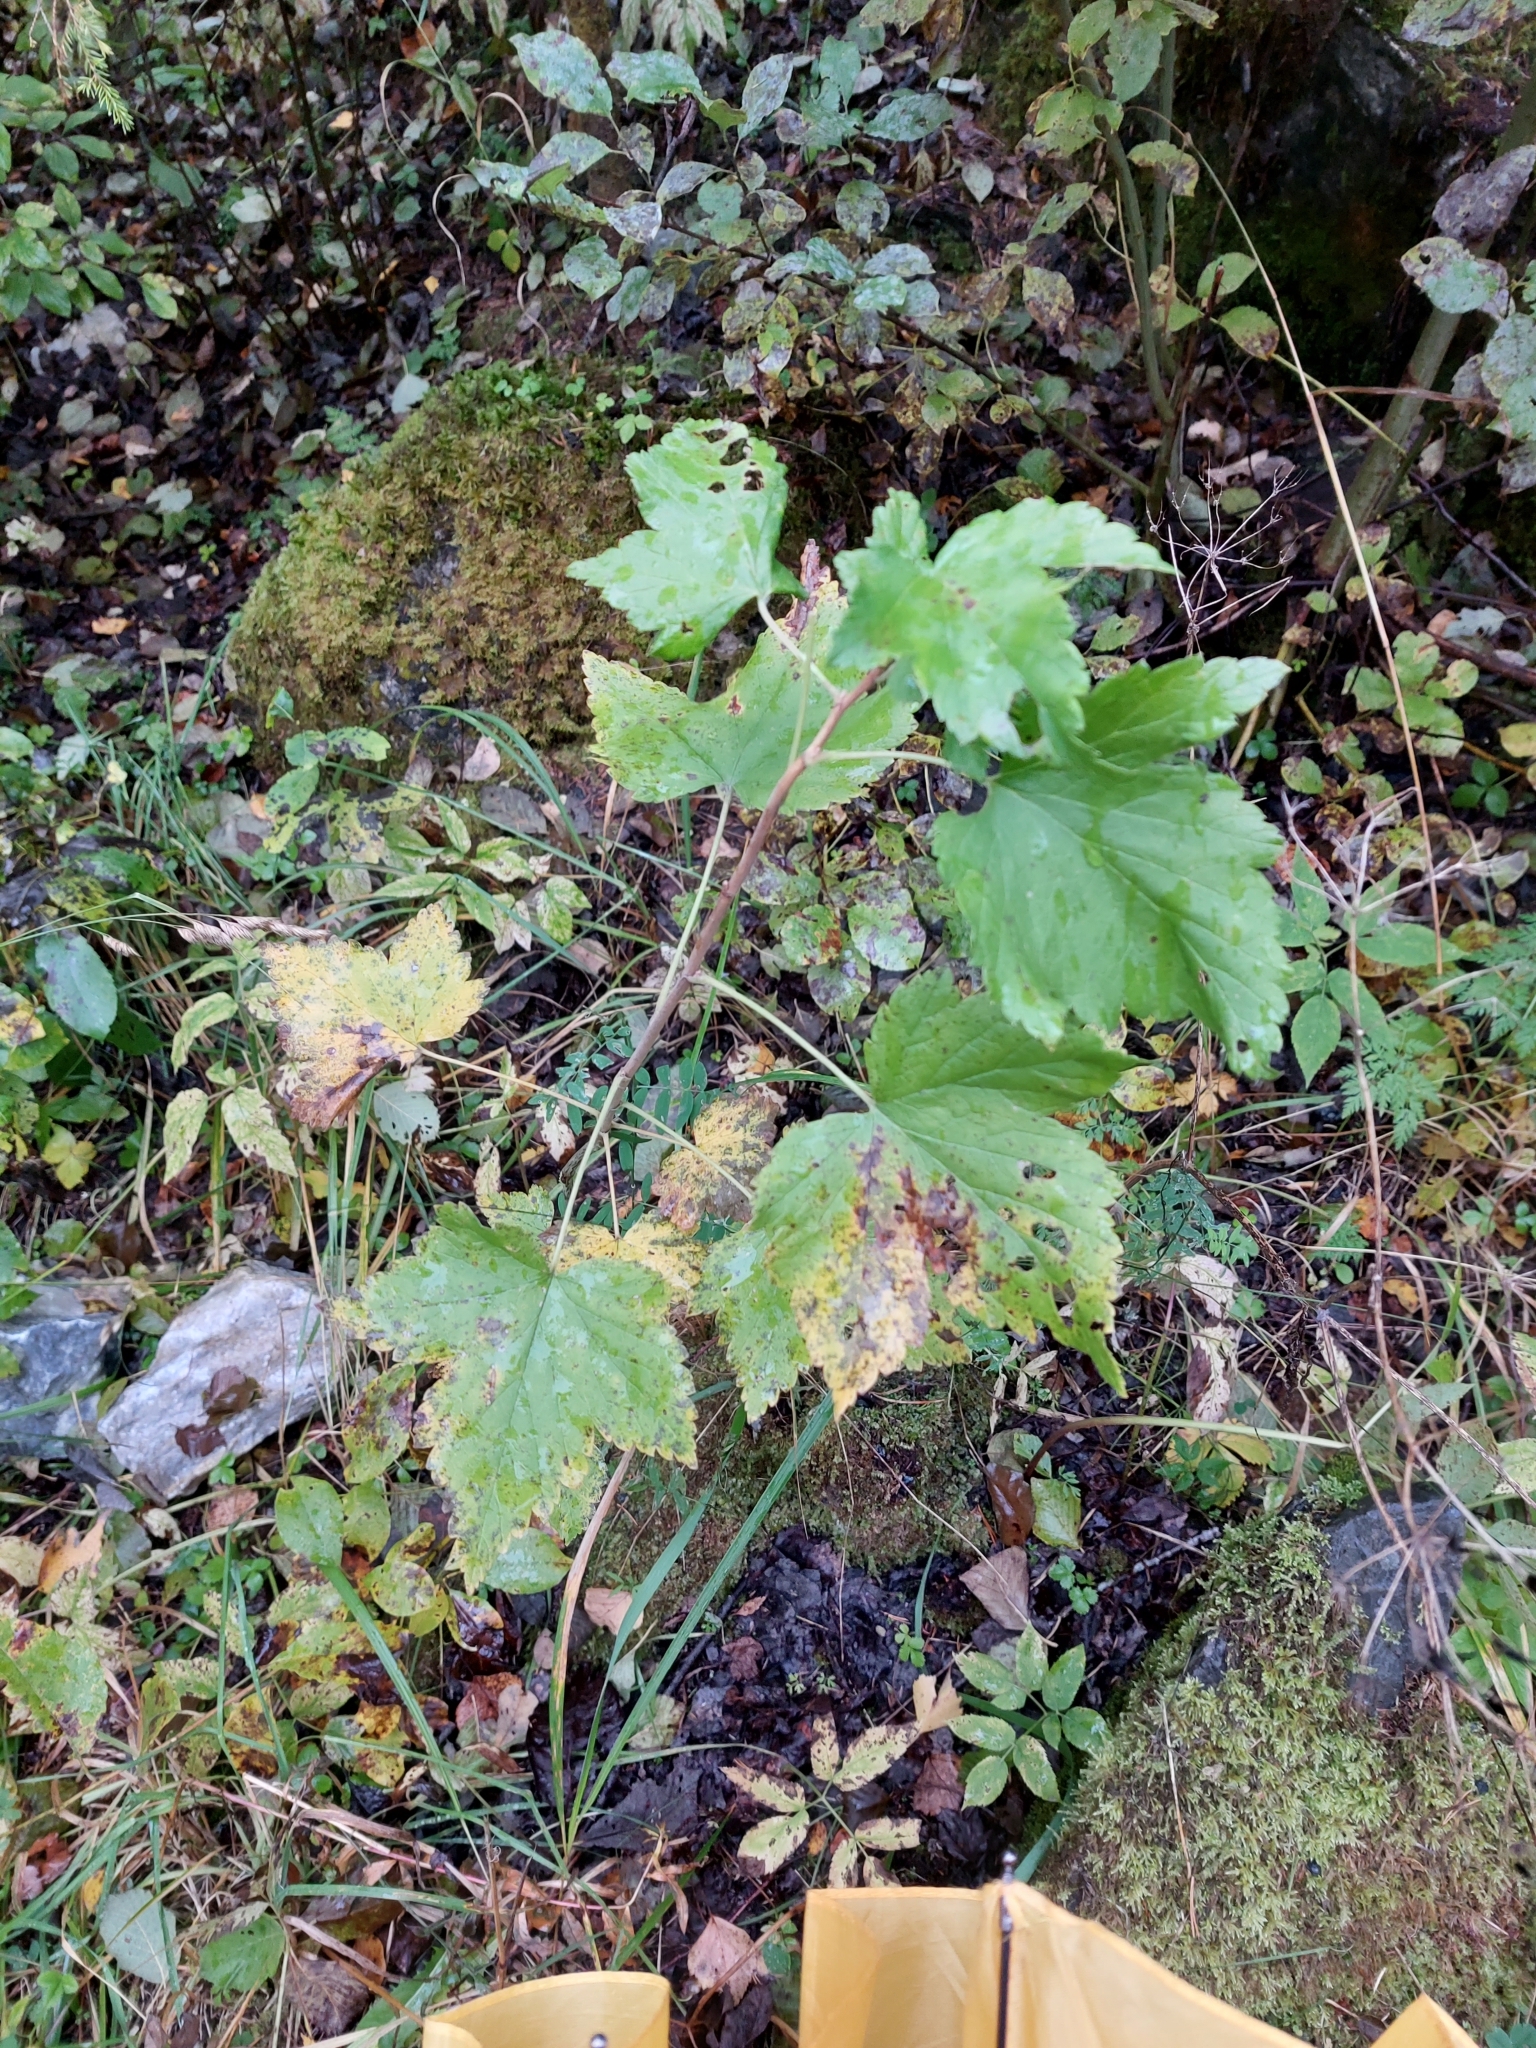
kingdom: Plantae
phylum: Tracheophyta
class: Magnoliopsida
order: Saxifragales
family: Grossulariaceae
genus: Ribes
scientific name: Ribes nigrum
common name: Black currant
